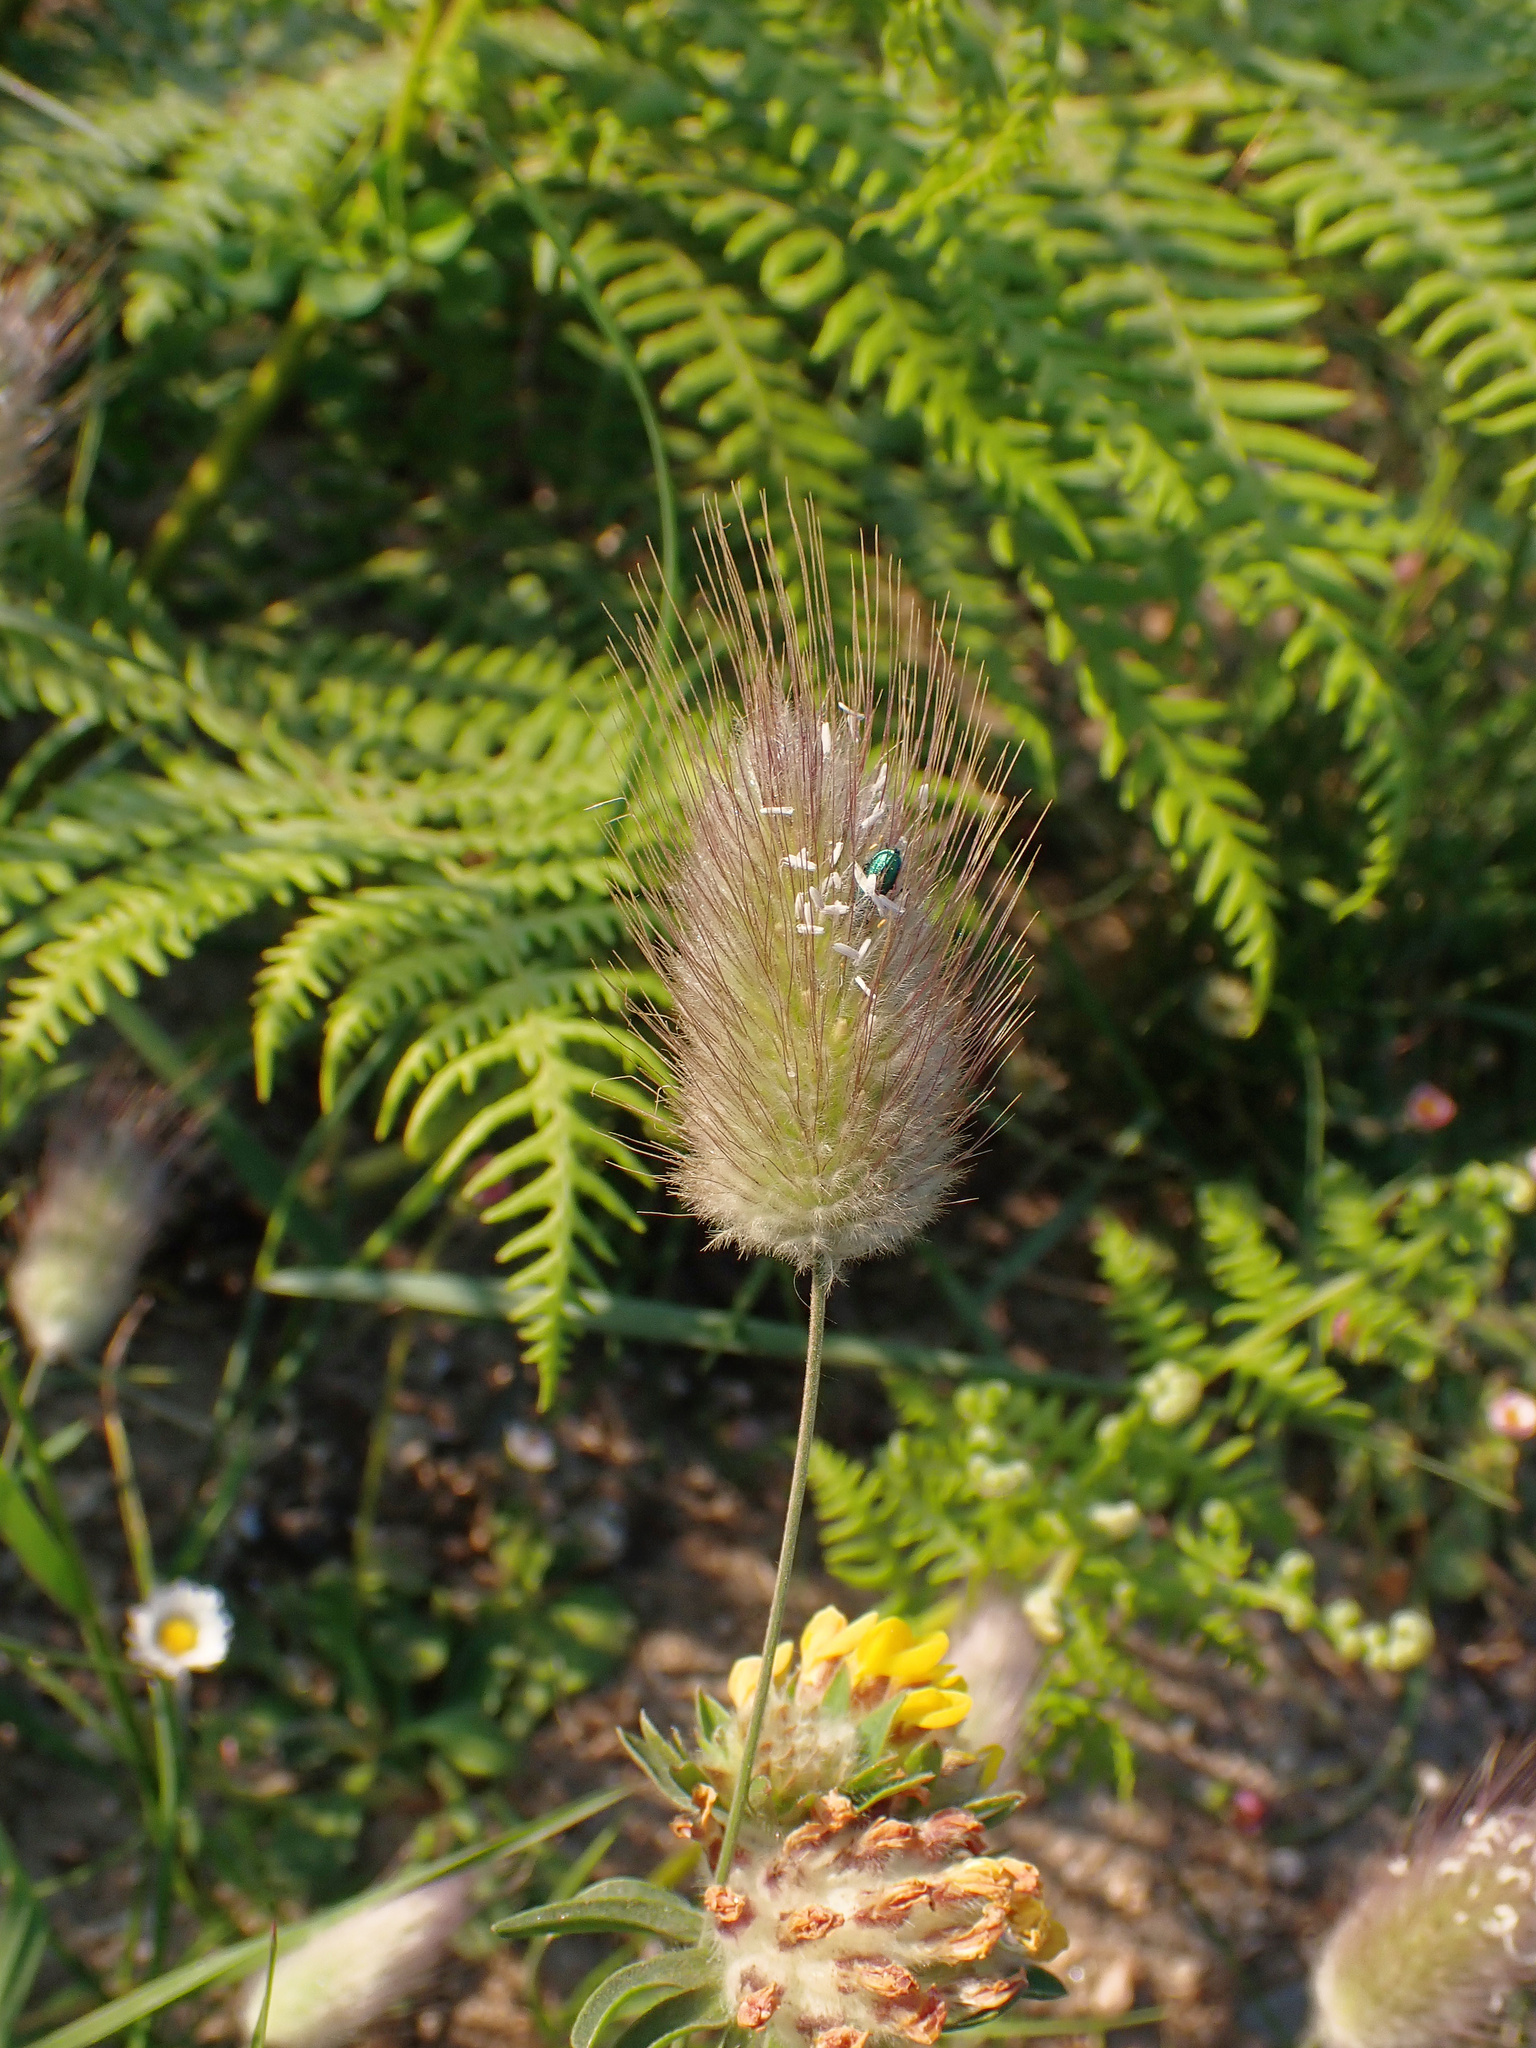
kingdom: Plantae
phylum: Tracheophyta
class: Liliopsida
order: Poales
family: Poaceae
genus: Lagurus
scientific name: Lagurus ovatus
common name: Hare's-tail
